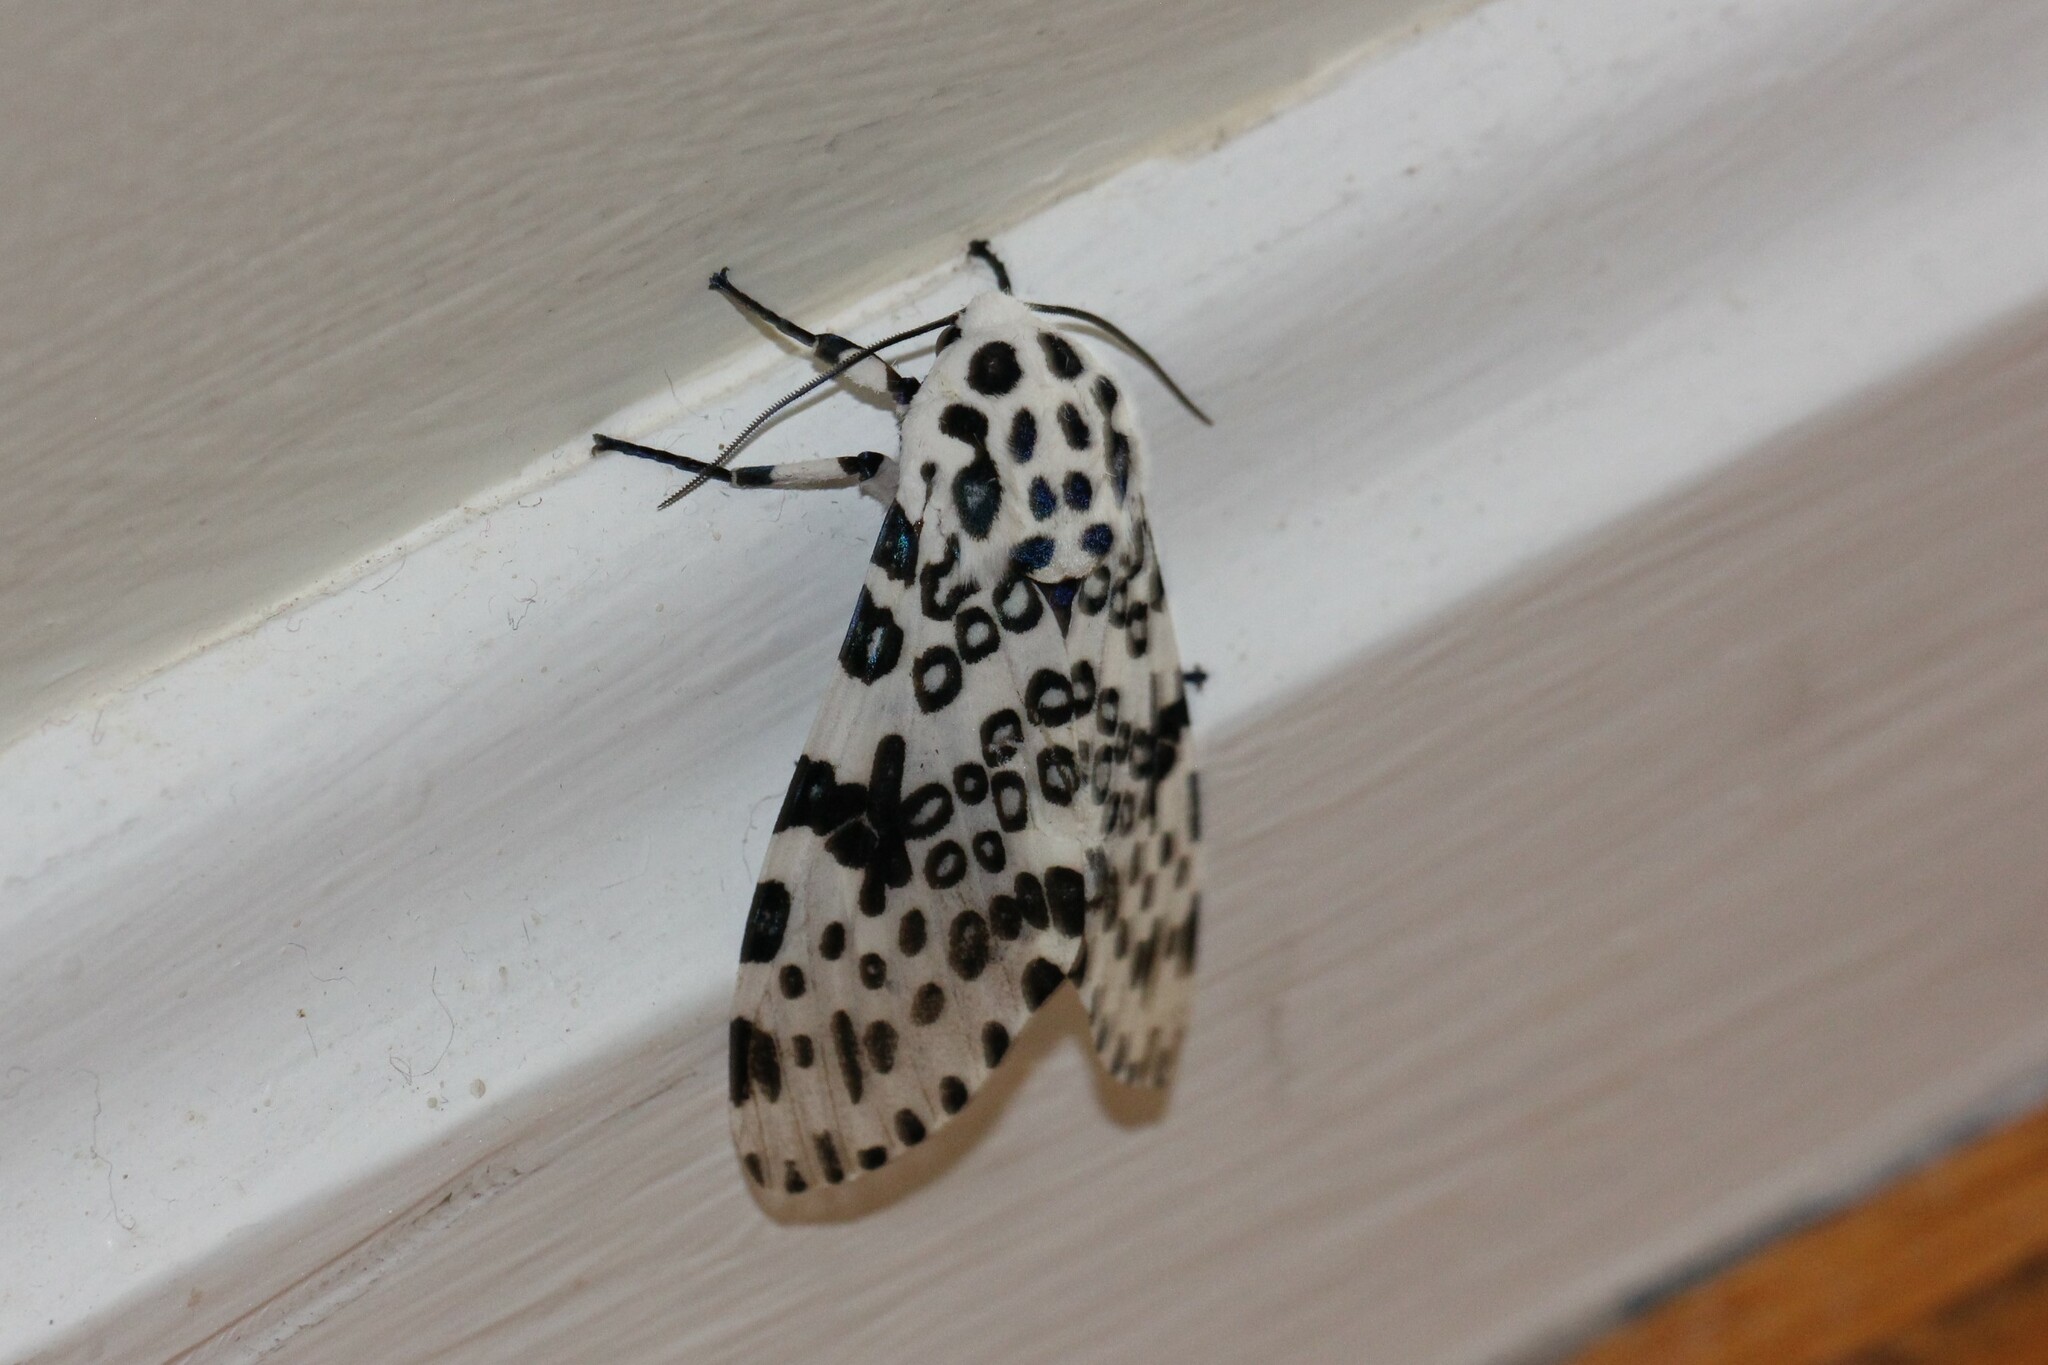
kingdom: Animalia
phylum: Arthropoda
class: Insecta
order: Lepidoptera
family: Erebidae
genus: Hypercompe
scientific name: Hypercompe scribonia
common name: Giant leopard moth
